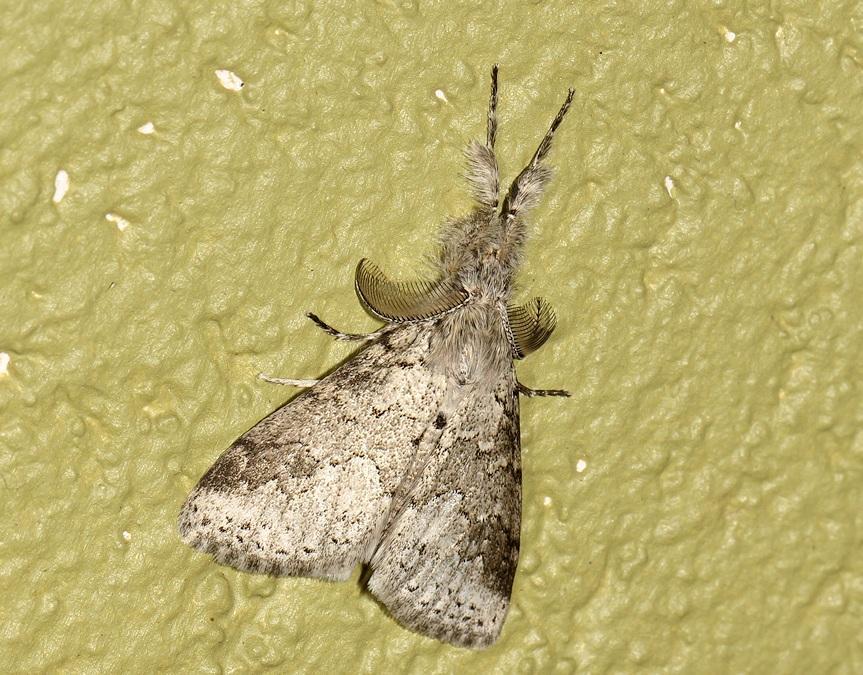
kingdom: Animalia
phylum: Arthropoda
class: Insecta
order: Lepidoptera
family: Erebidae
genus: Dasychira
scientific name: Dasychira hampsoni
